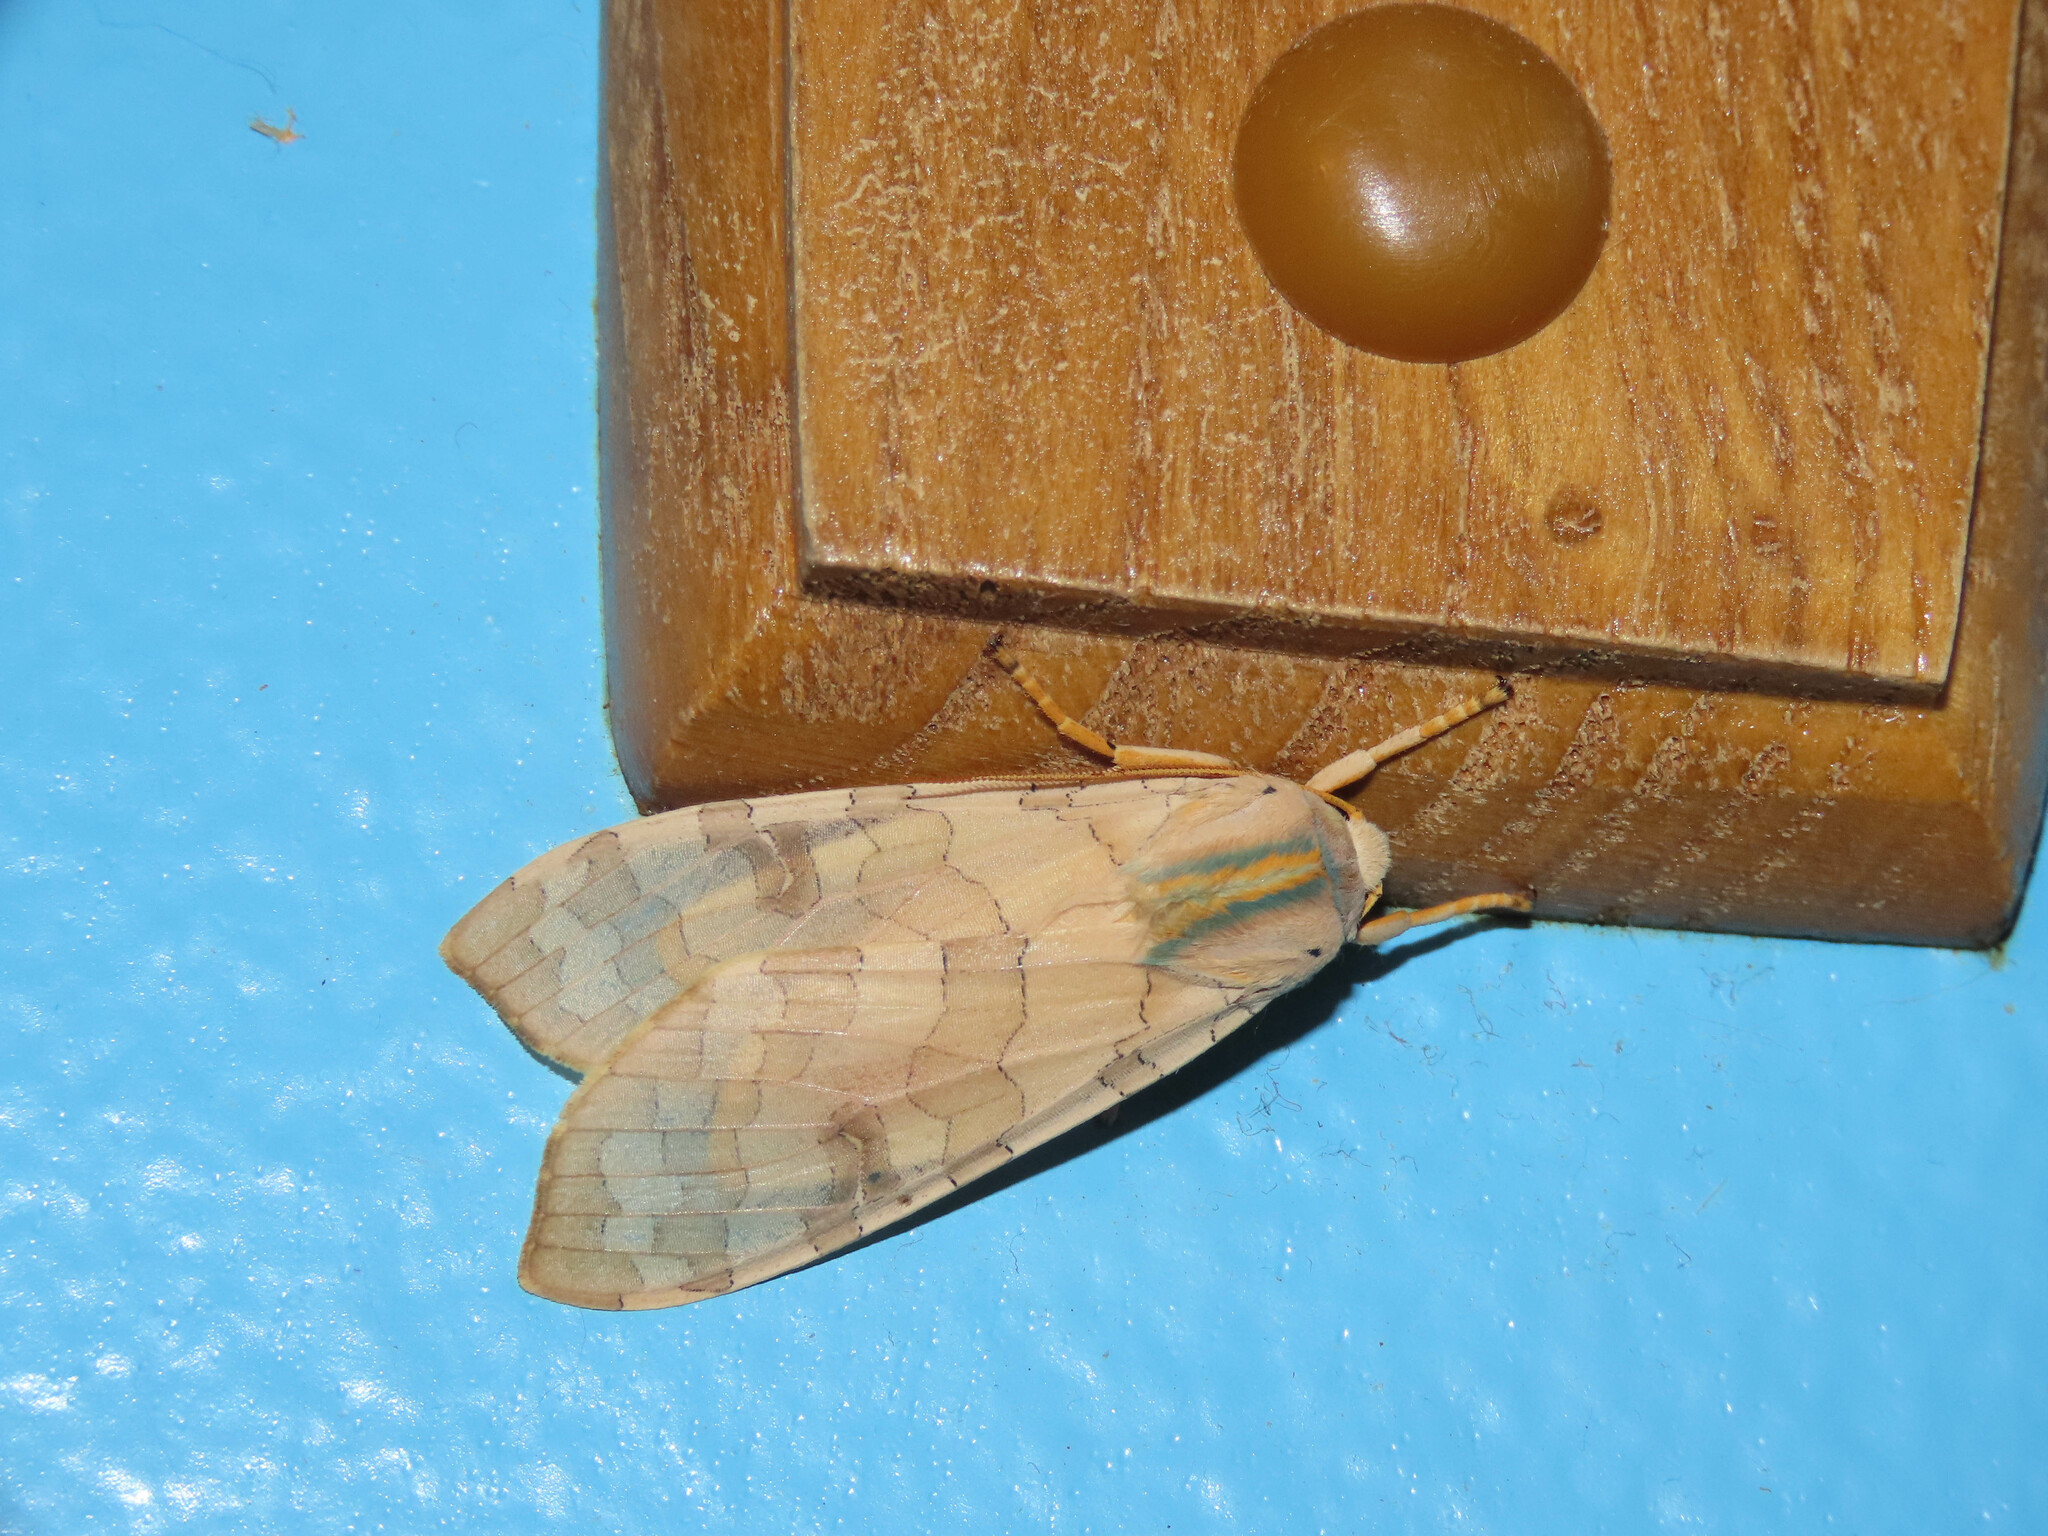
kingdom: Animalia
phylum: Arthropoda
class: Insecta
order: Lepidoptera
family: Erebidae
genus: Halysidota
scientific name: Halysidota
